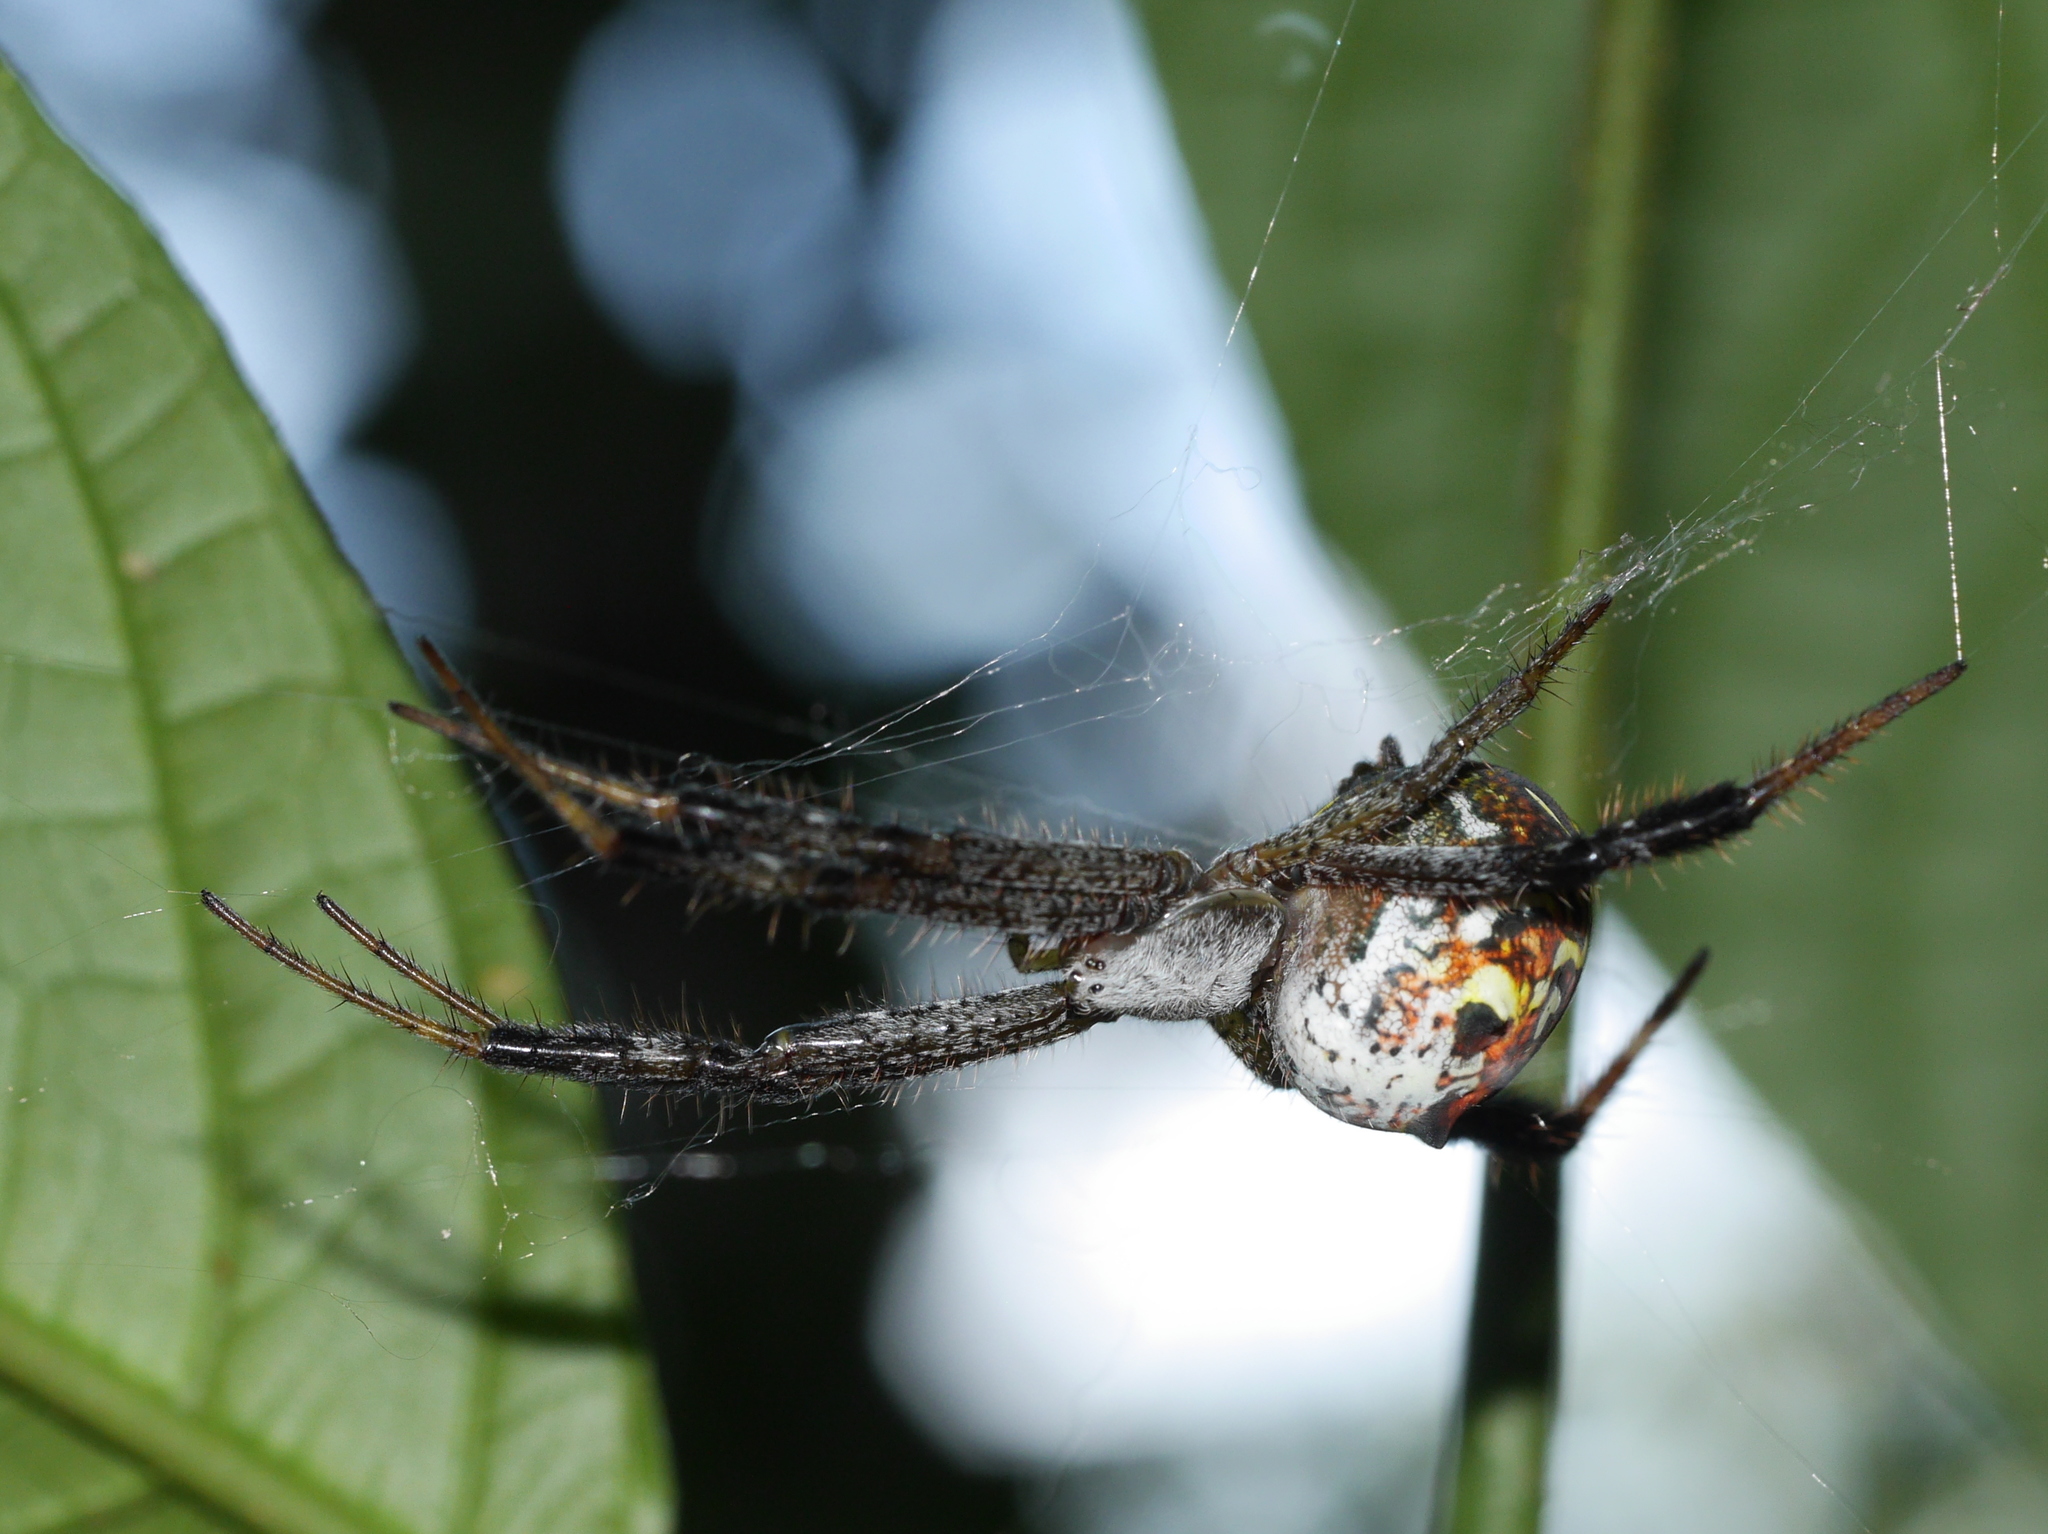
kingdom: Chromista
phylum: Ochrophyta
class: Dictyochophyceae
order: Pedinellales
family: Cyrtophoraceae
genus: Cyrtophora
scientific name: Cyrtophora moluccensis
